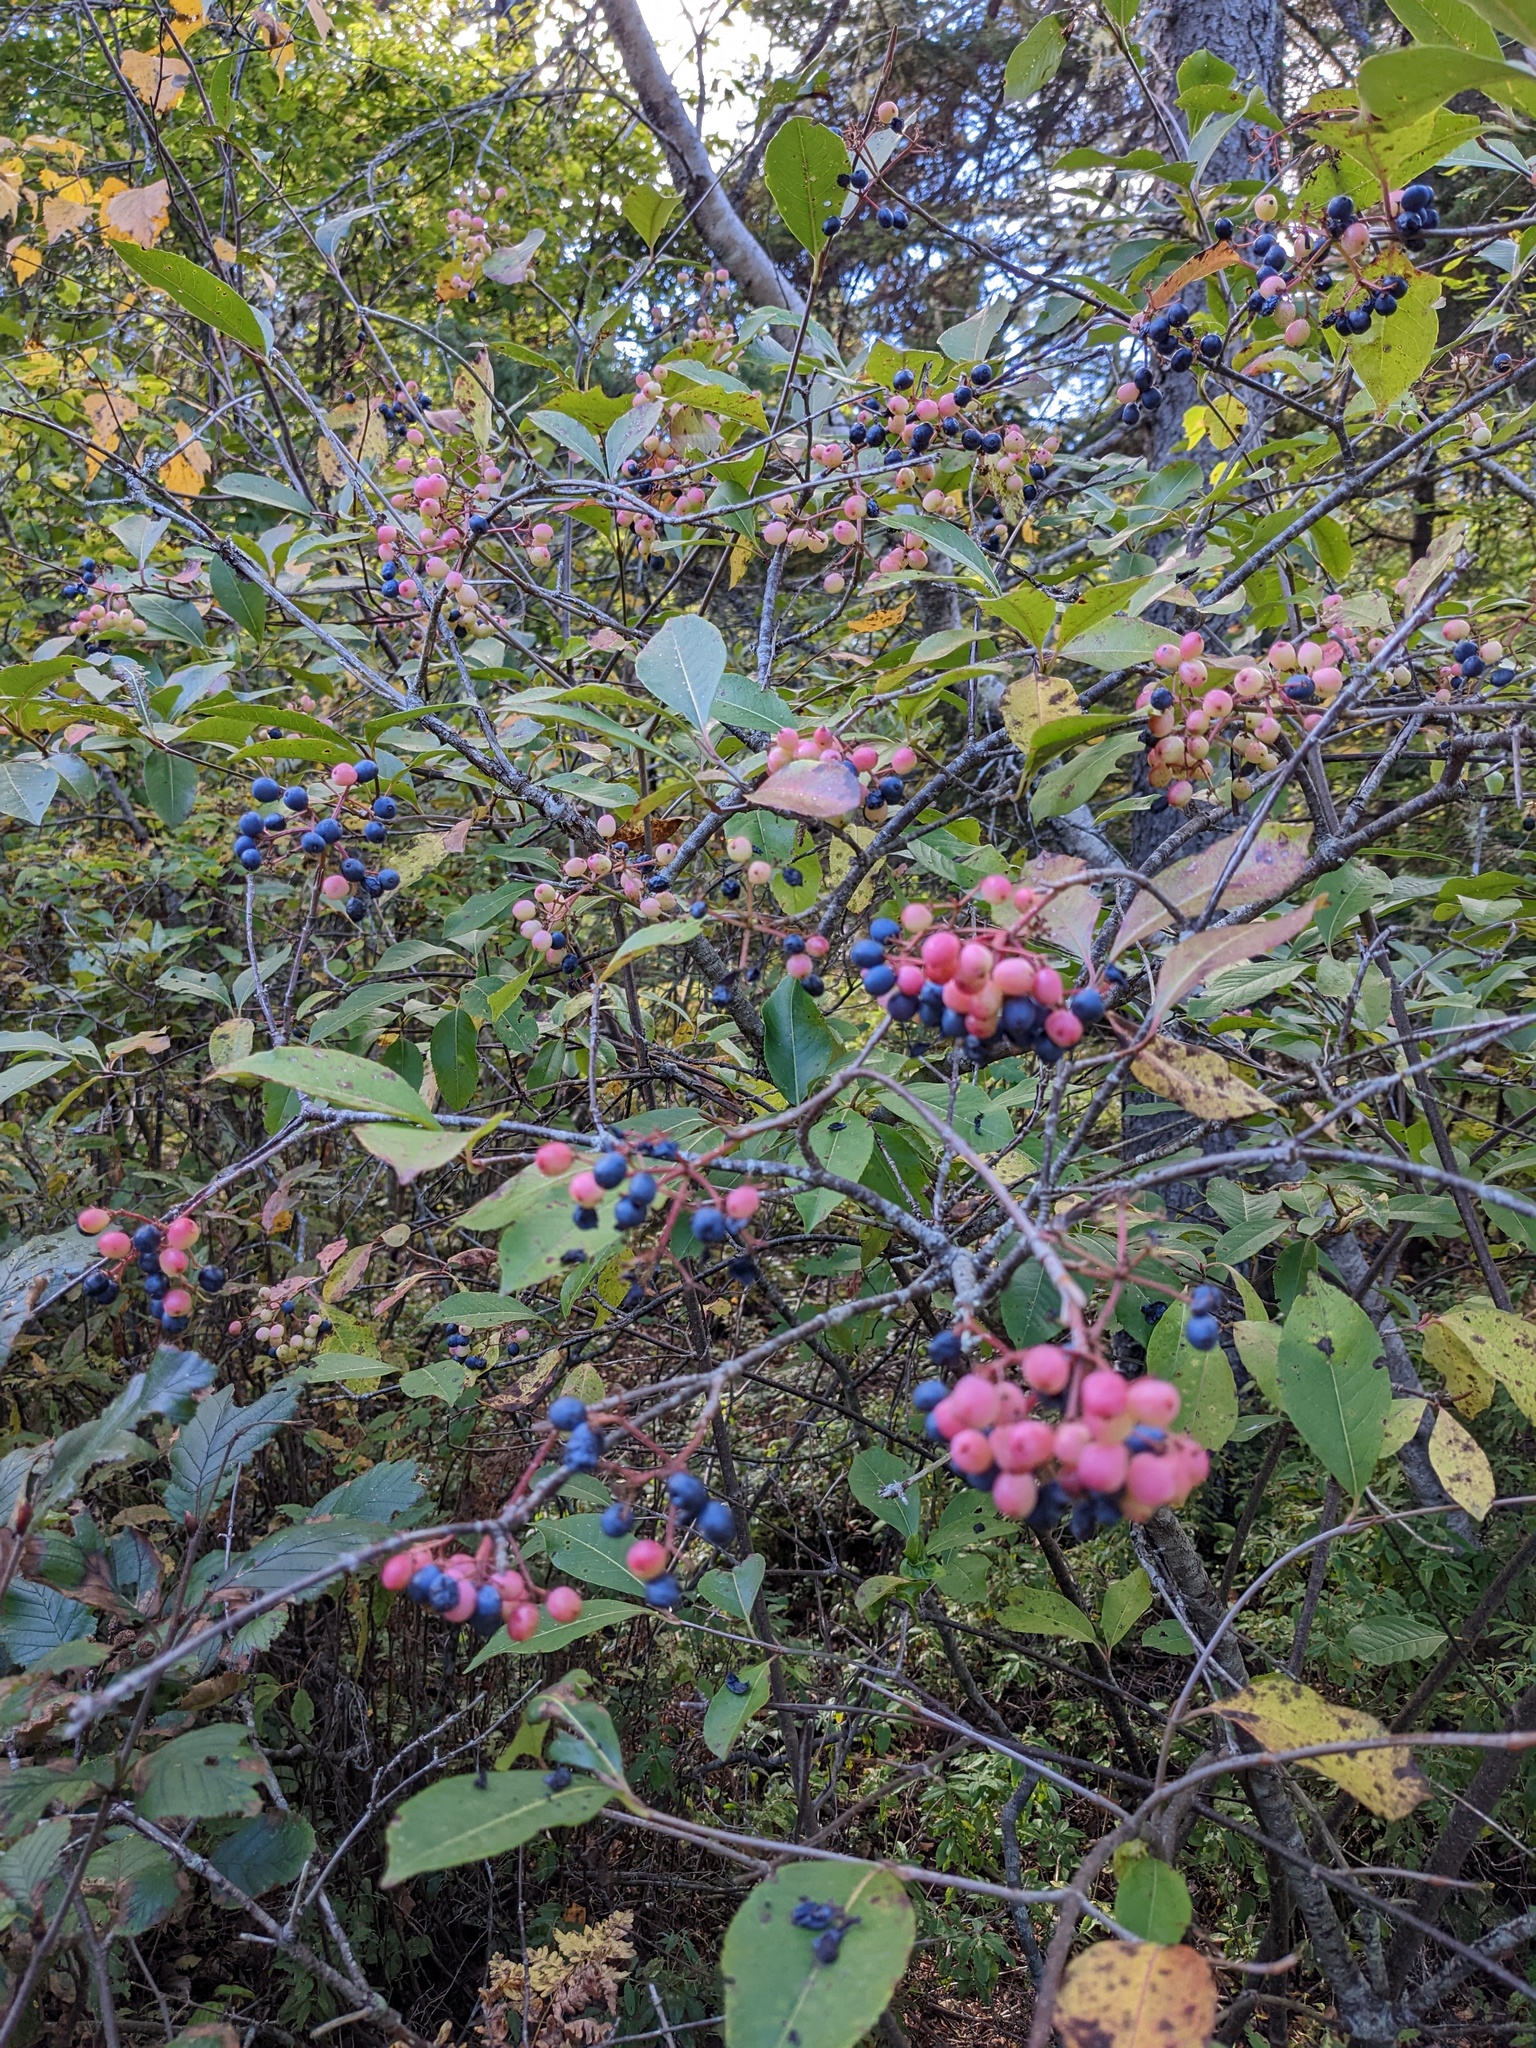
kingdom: Plantae
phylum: Tracheophyta
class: Magnoliopsida
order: Dipsacales
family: Viburnaceae
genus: Viburnum
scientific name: Viburnum cassinoides
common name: Swamp haw
